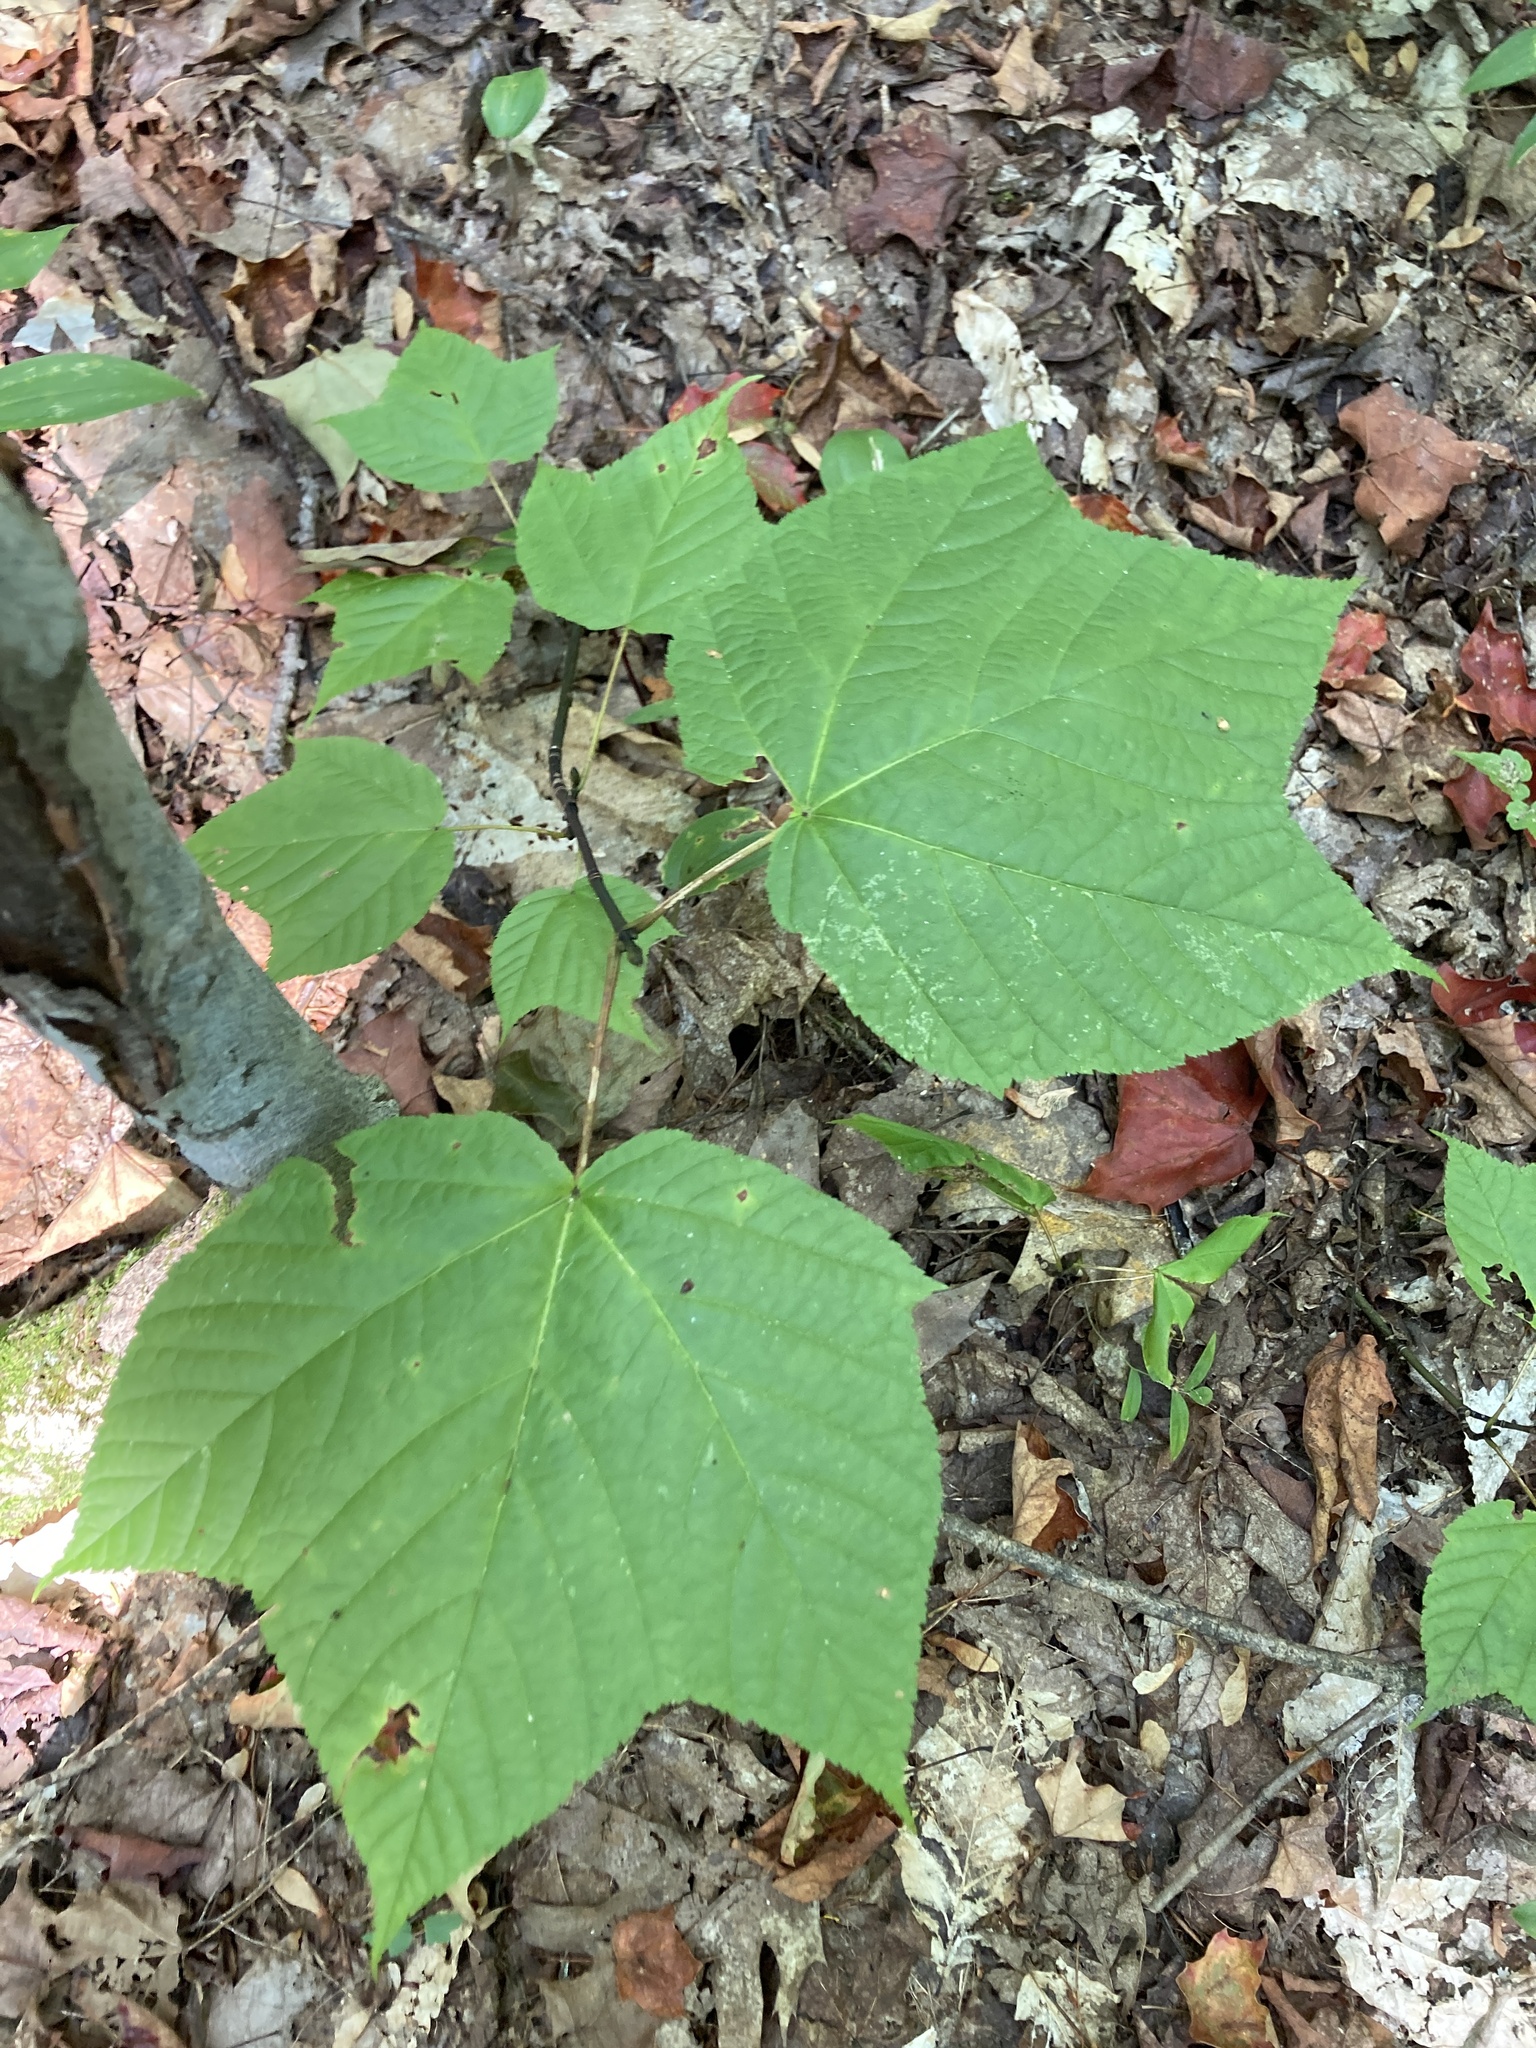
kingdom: Plantae
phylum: Tracheophyta
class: Magnoliopsida
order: Sapindales
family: Sapindaceae
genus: Acer
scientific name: Acer pensylvanicum
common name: Moosewood
